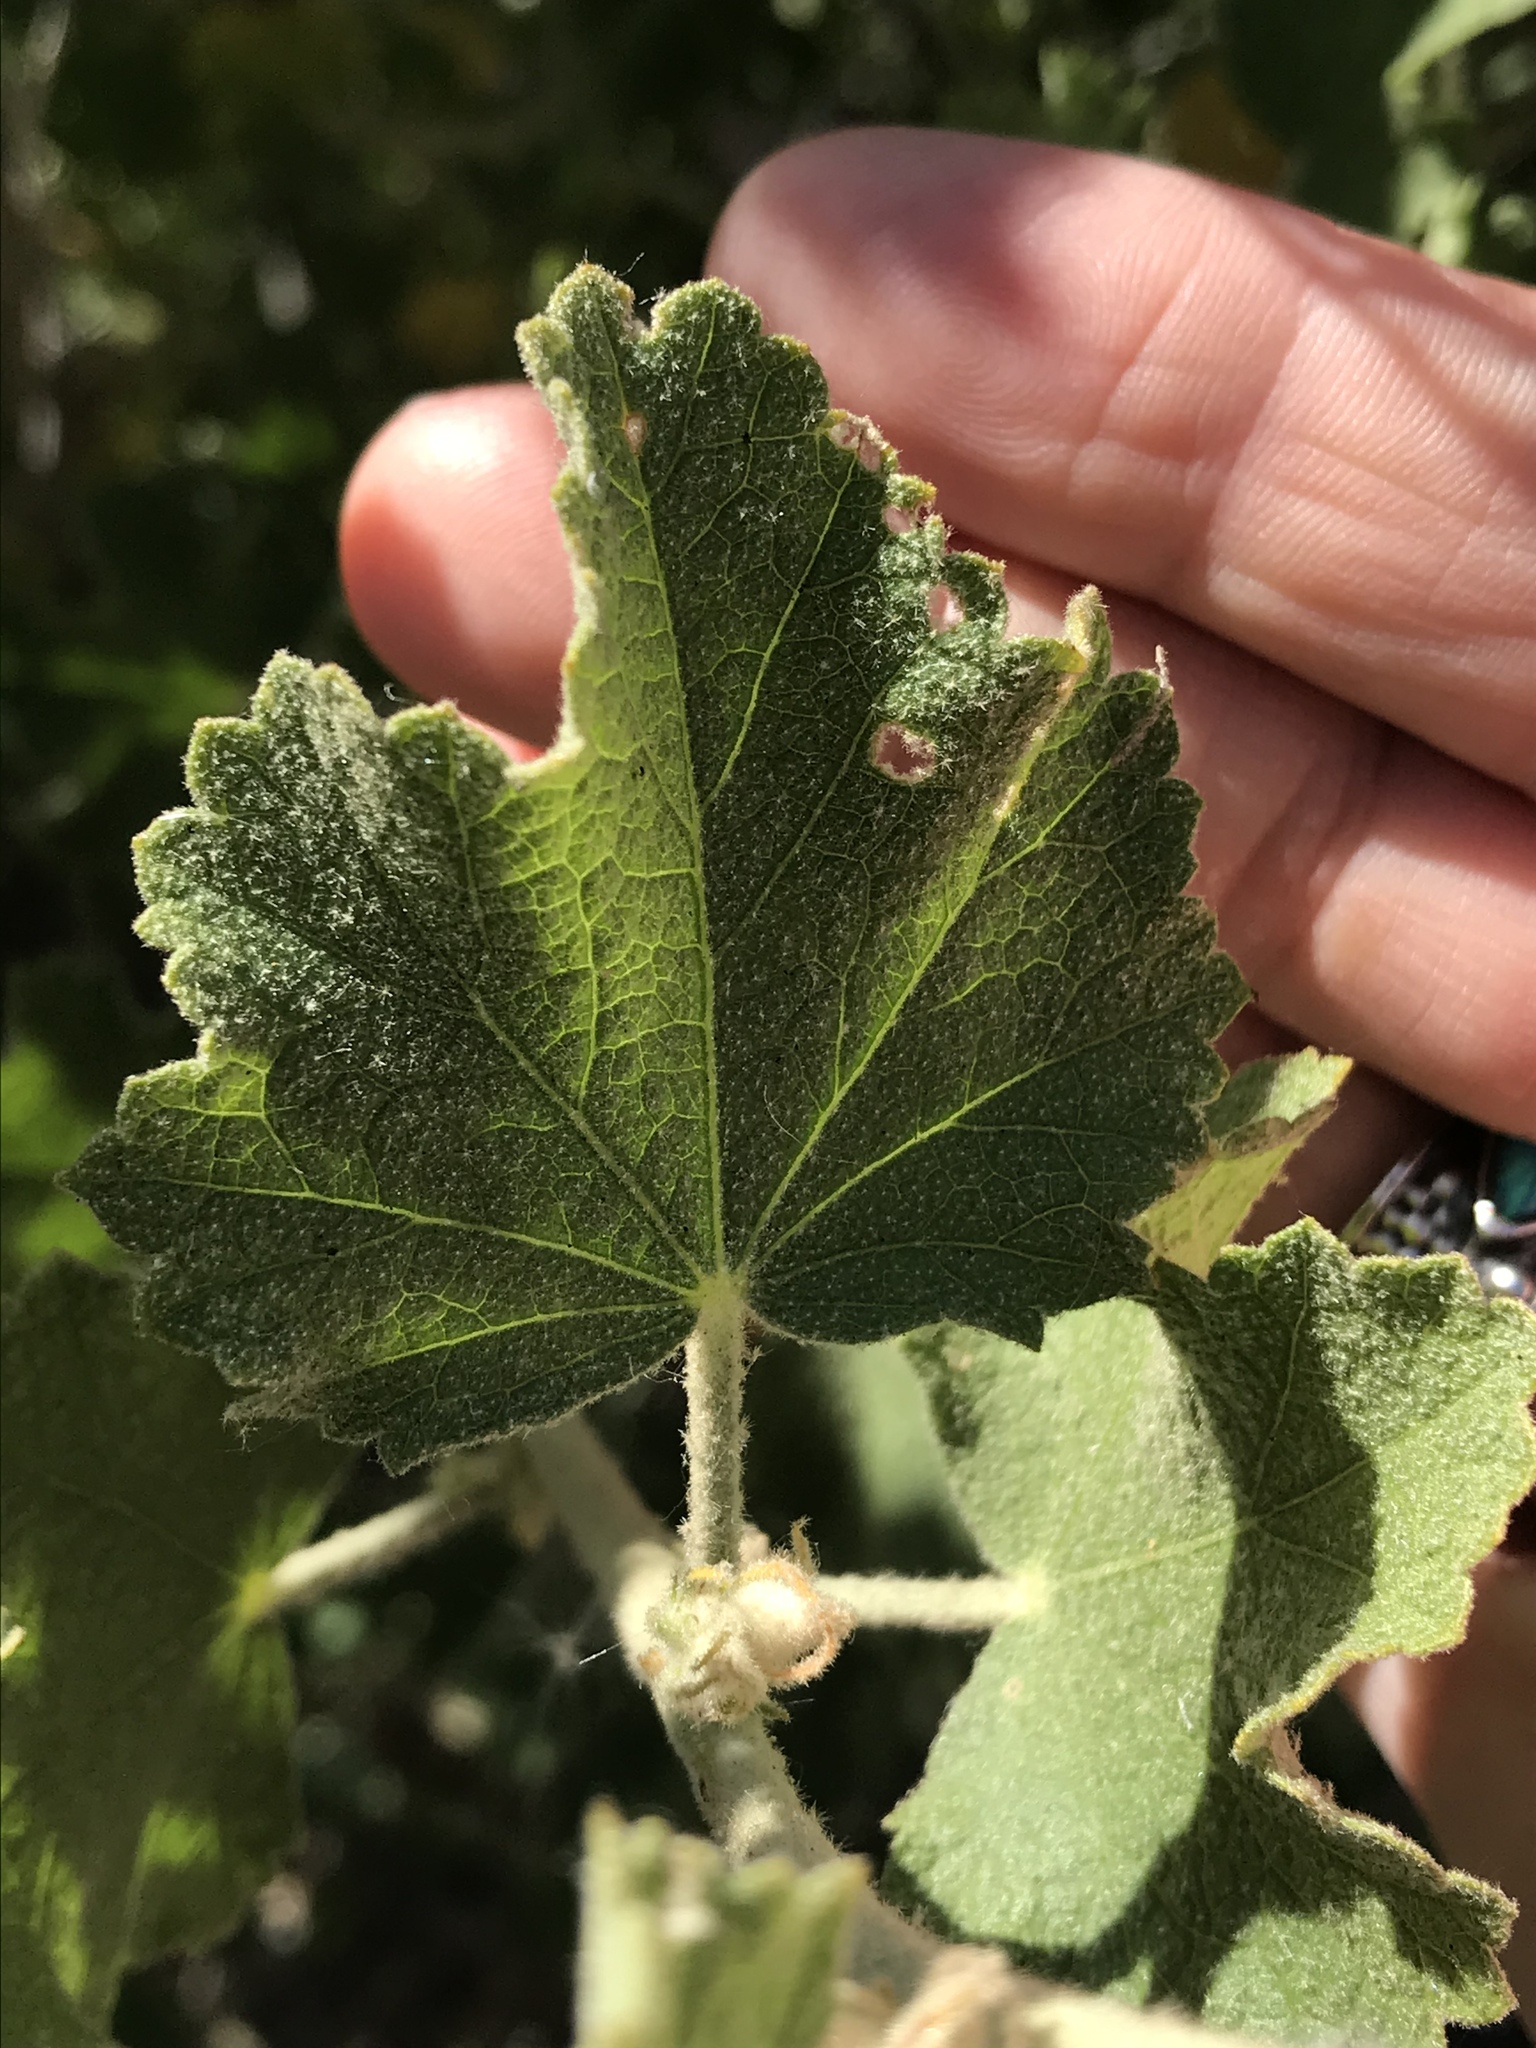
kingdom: Plantae
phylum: Tracheophyta
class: Magnoliopsida
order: Malvales
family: Malvaceae
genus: Malacothamnus
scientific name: Malacothamnus marrubioides
